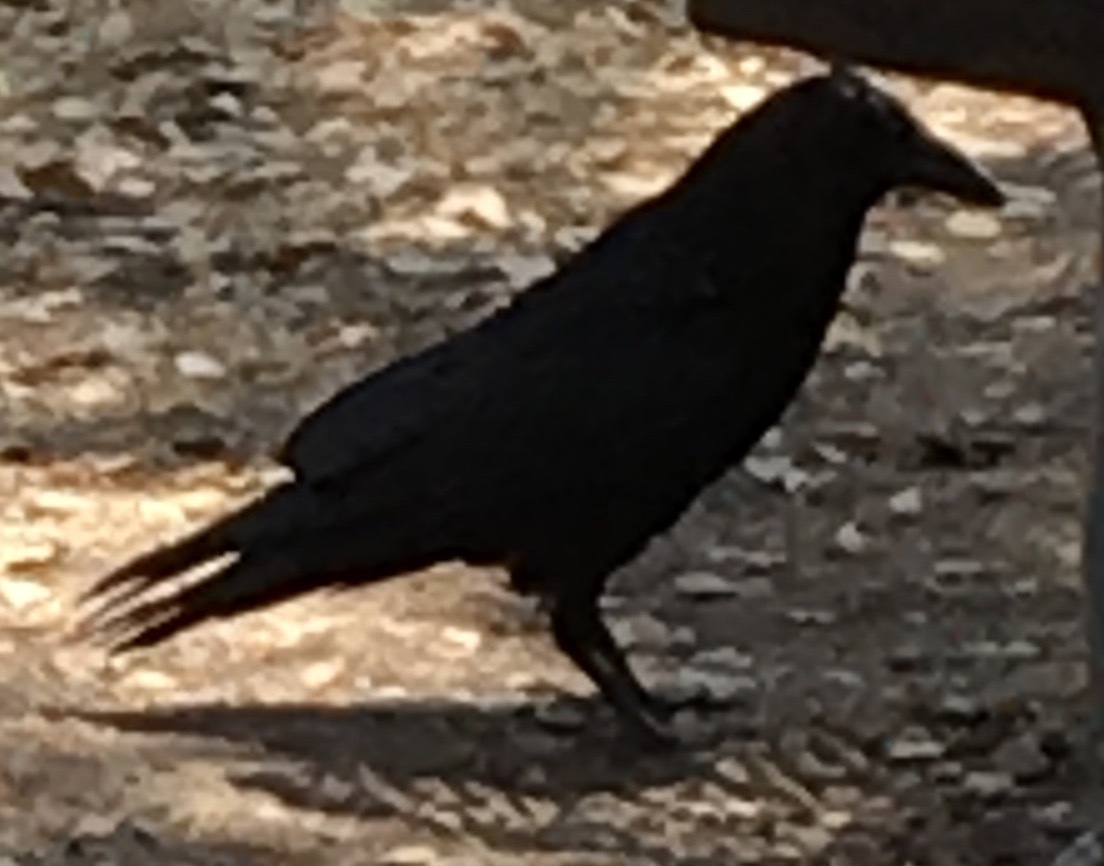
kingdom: Animalia
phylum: Chordata
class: Aves
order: Passeriformes
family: Corvidae
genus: Corvus
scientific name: Corvus corax
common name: Common raven
